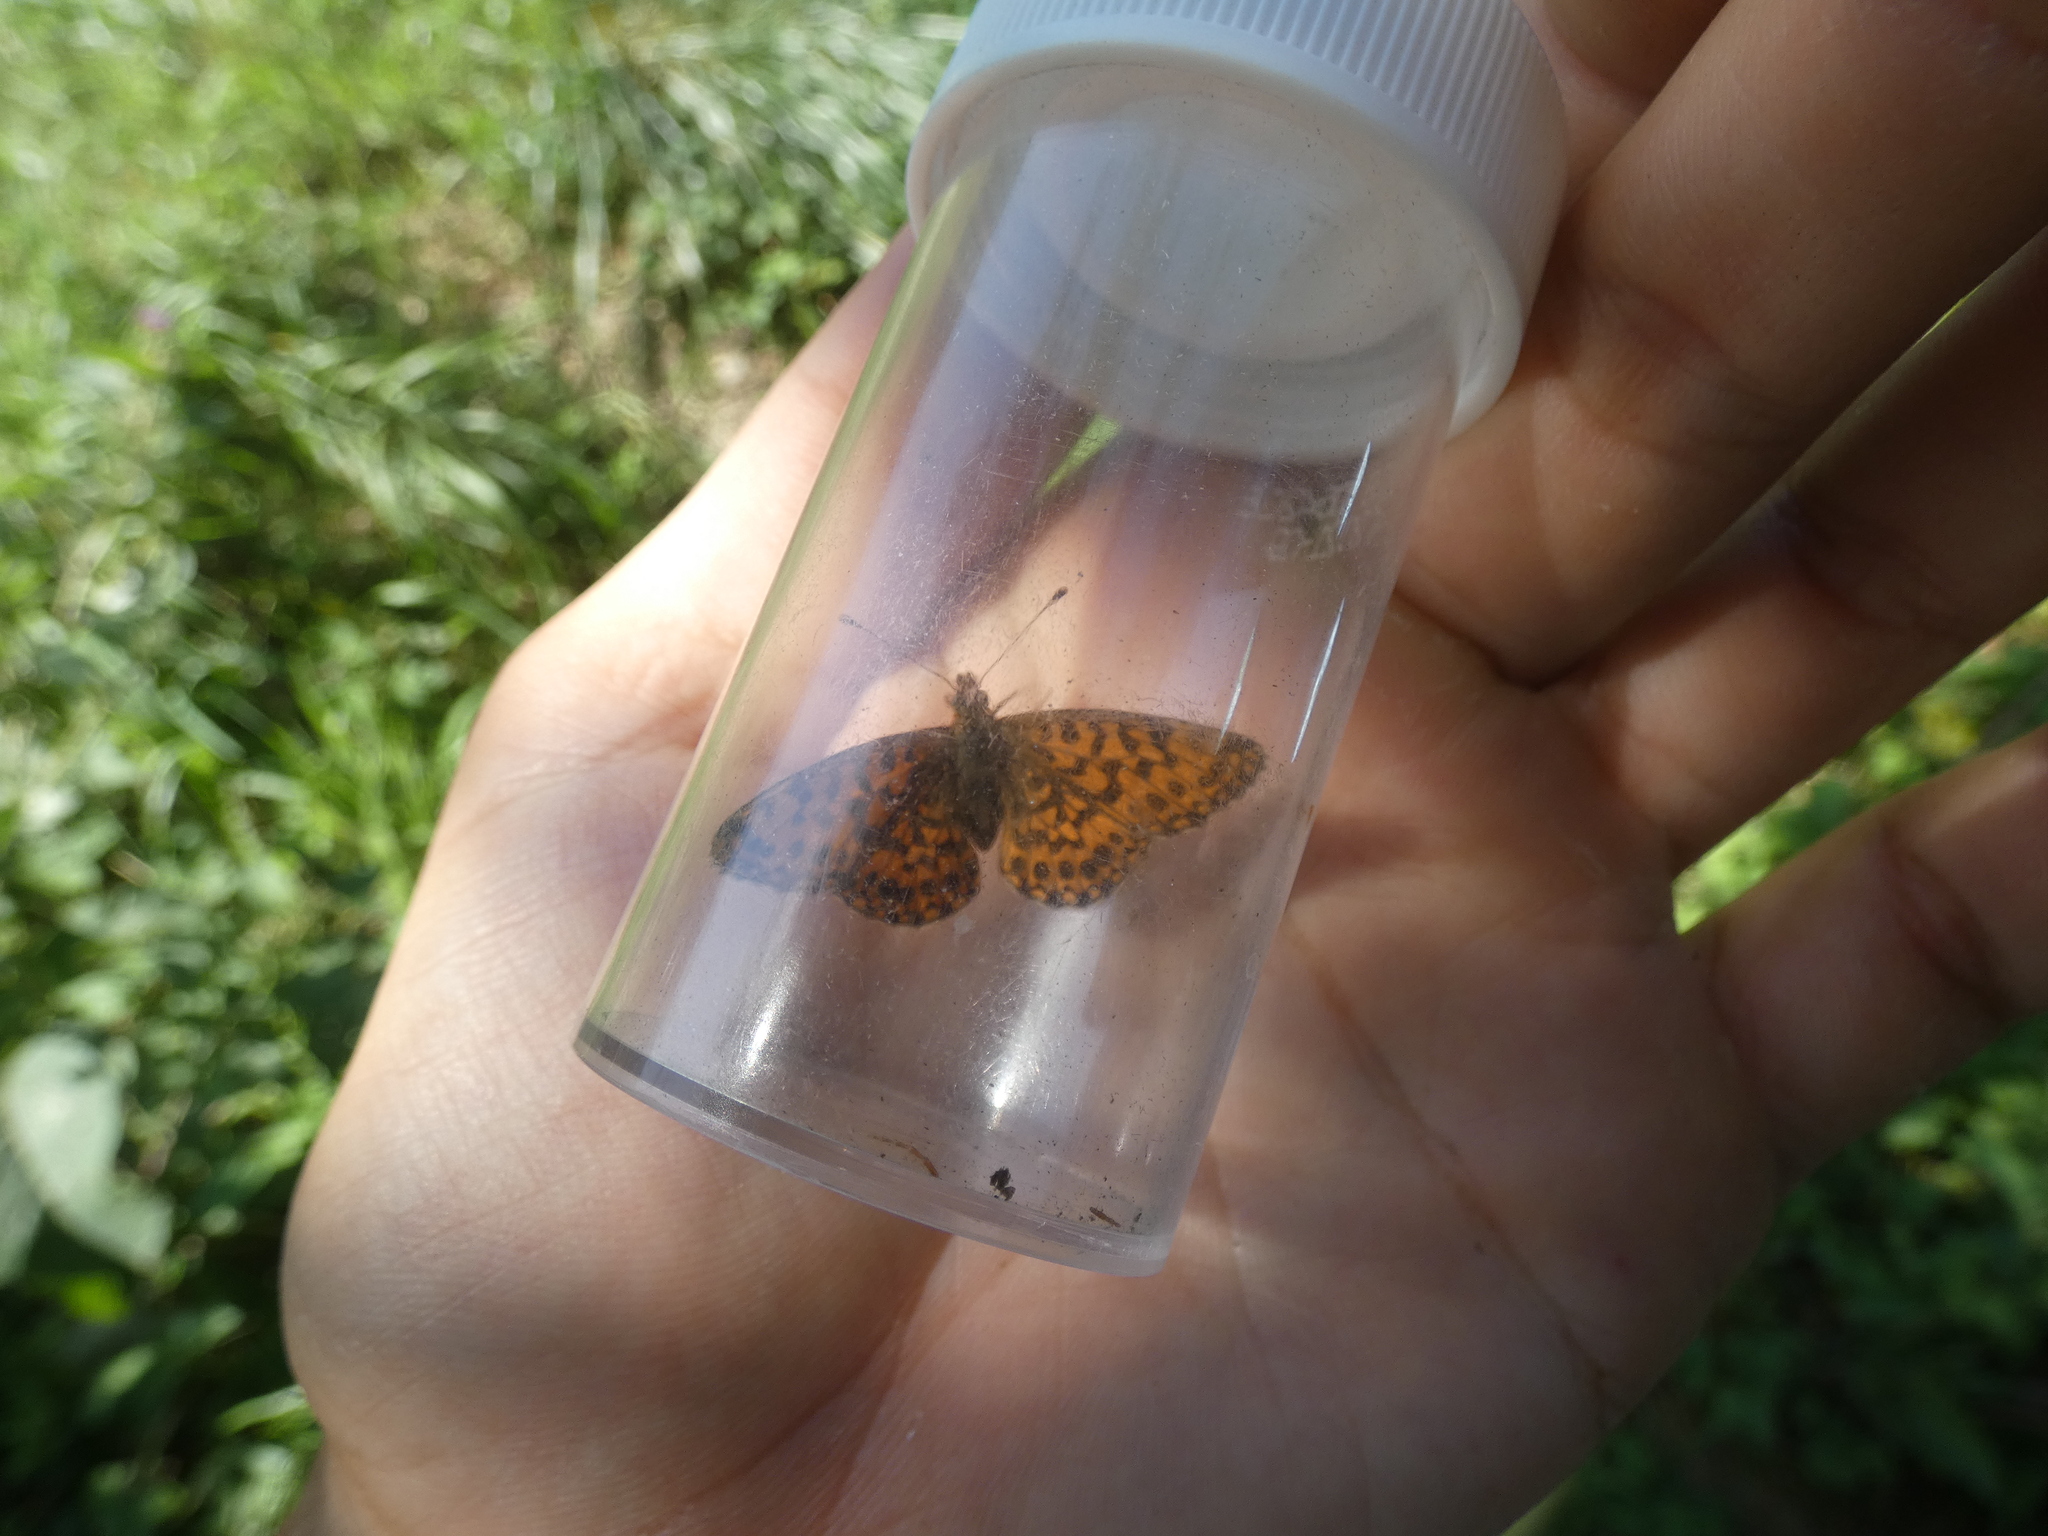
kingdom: Animalia
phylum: Arthropoda
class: Insecta
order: Lepidoptera
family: Nymphalidae
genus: Boloria
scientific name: Boloria dia
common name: Weaver's fritillary
